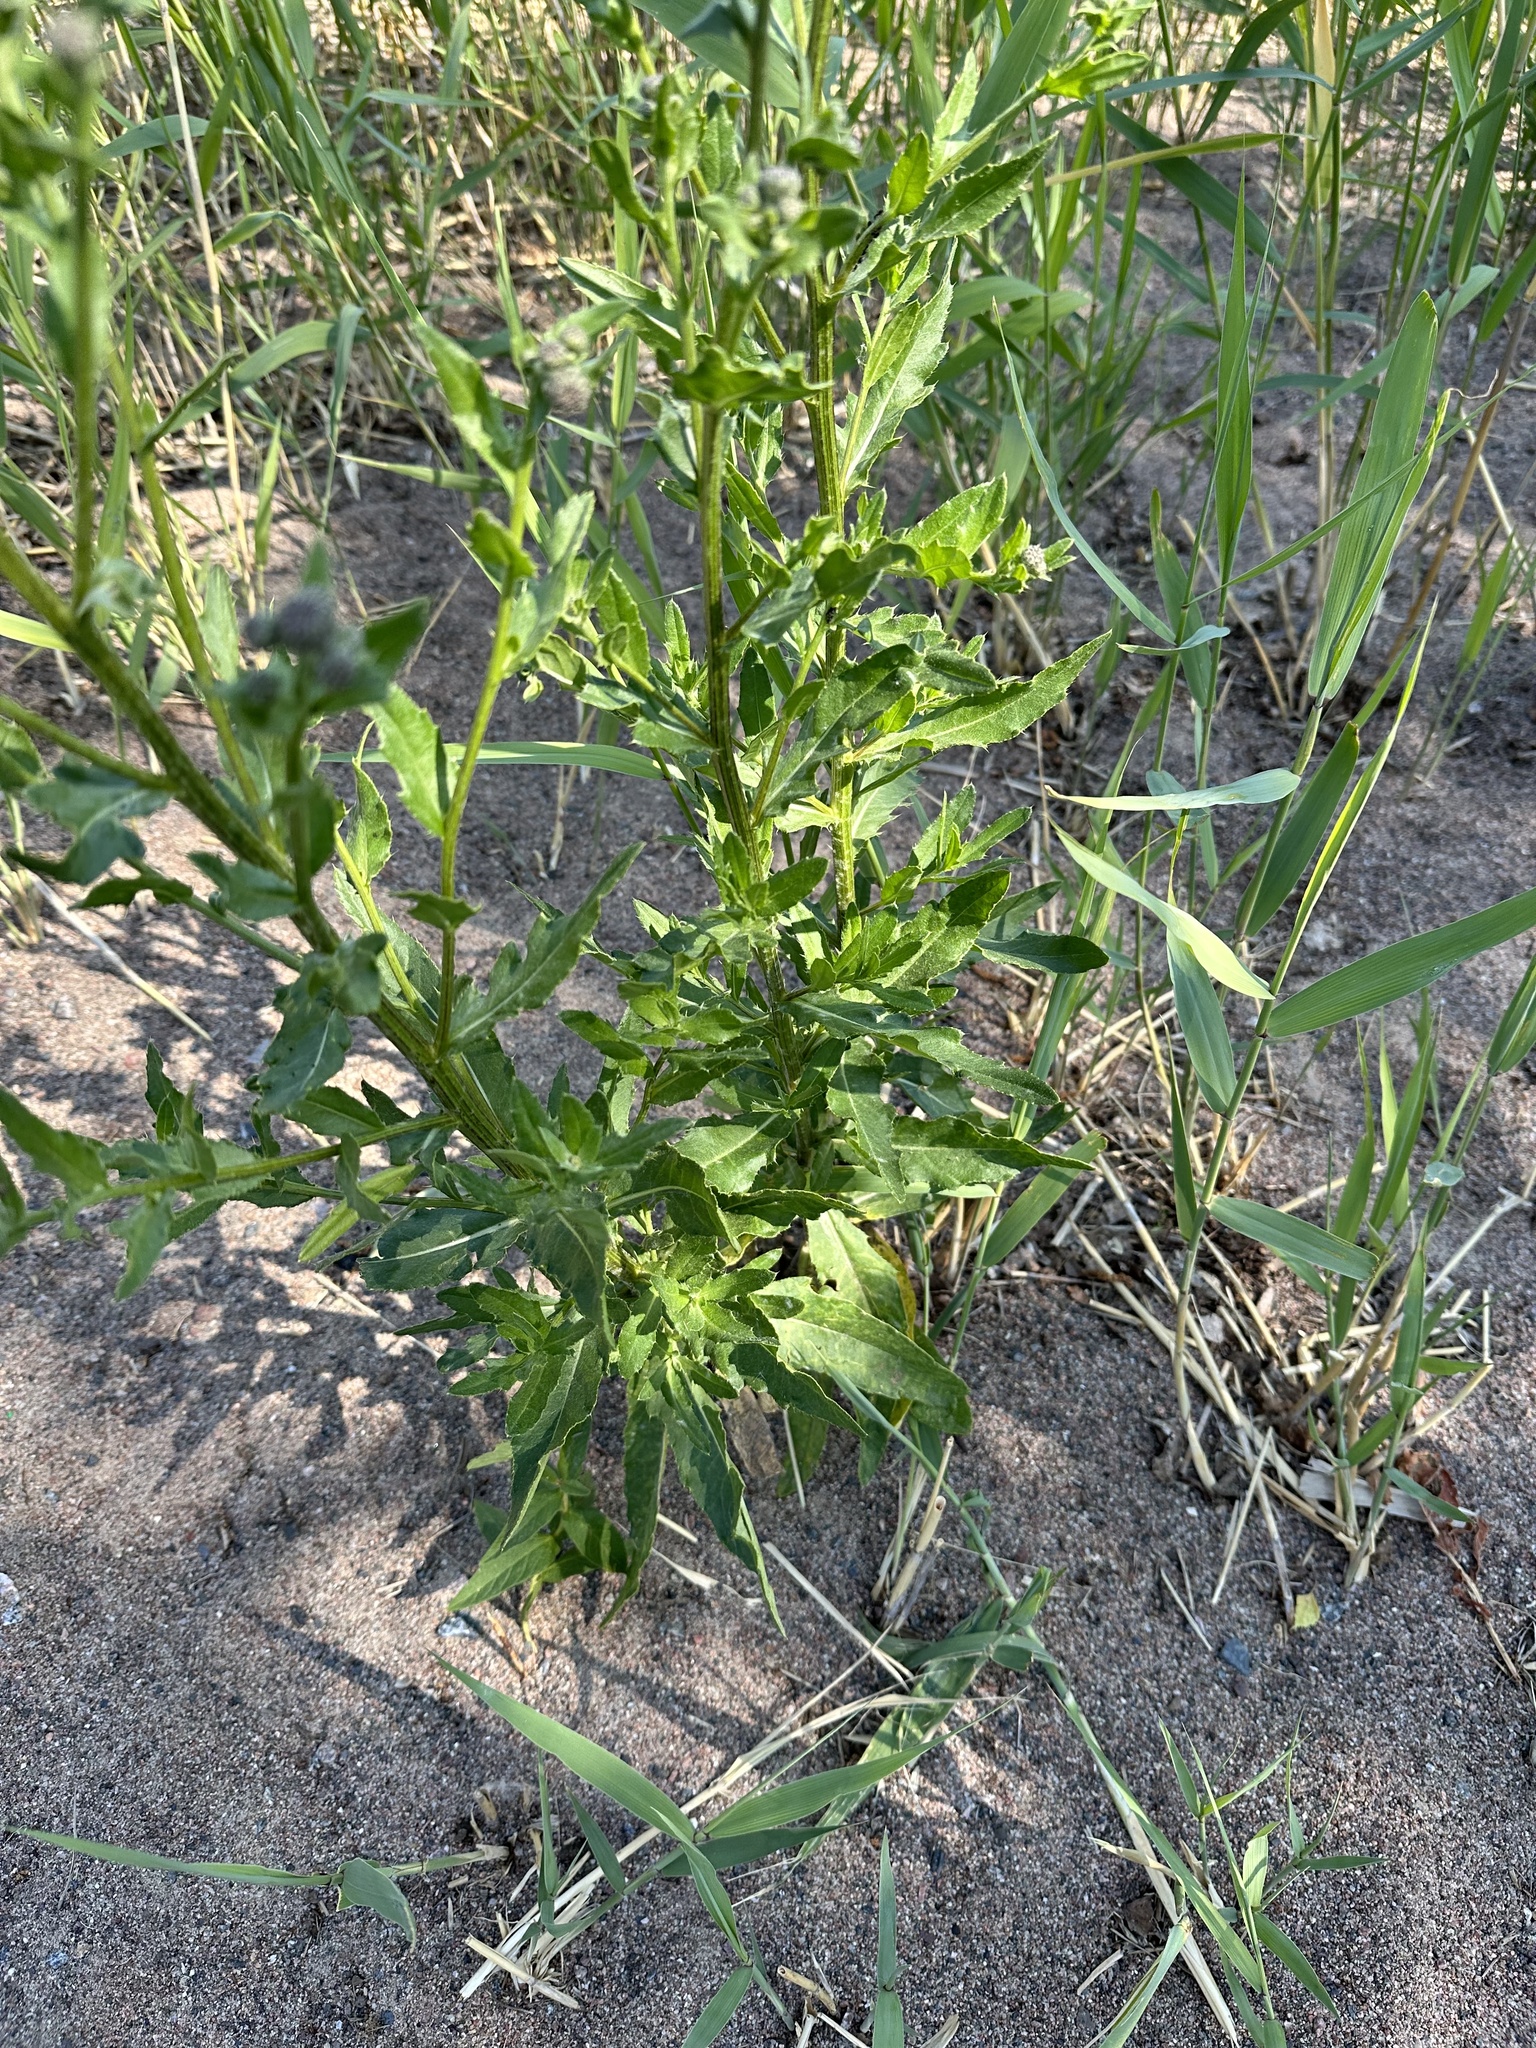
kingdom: Plantae
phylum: Tracheophyta
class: Magnoliopsida
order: Asterales
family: Asteraceae
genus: Cirsium
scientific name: Cirsium arvense
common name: Creeping thistle
